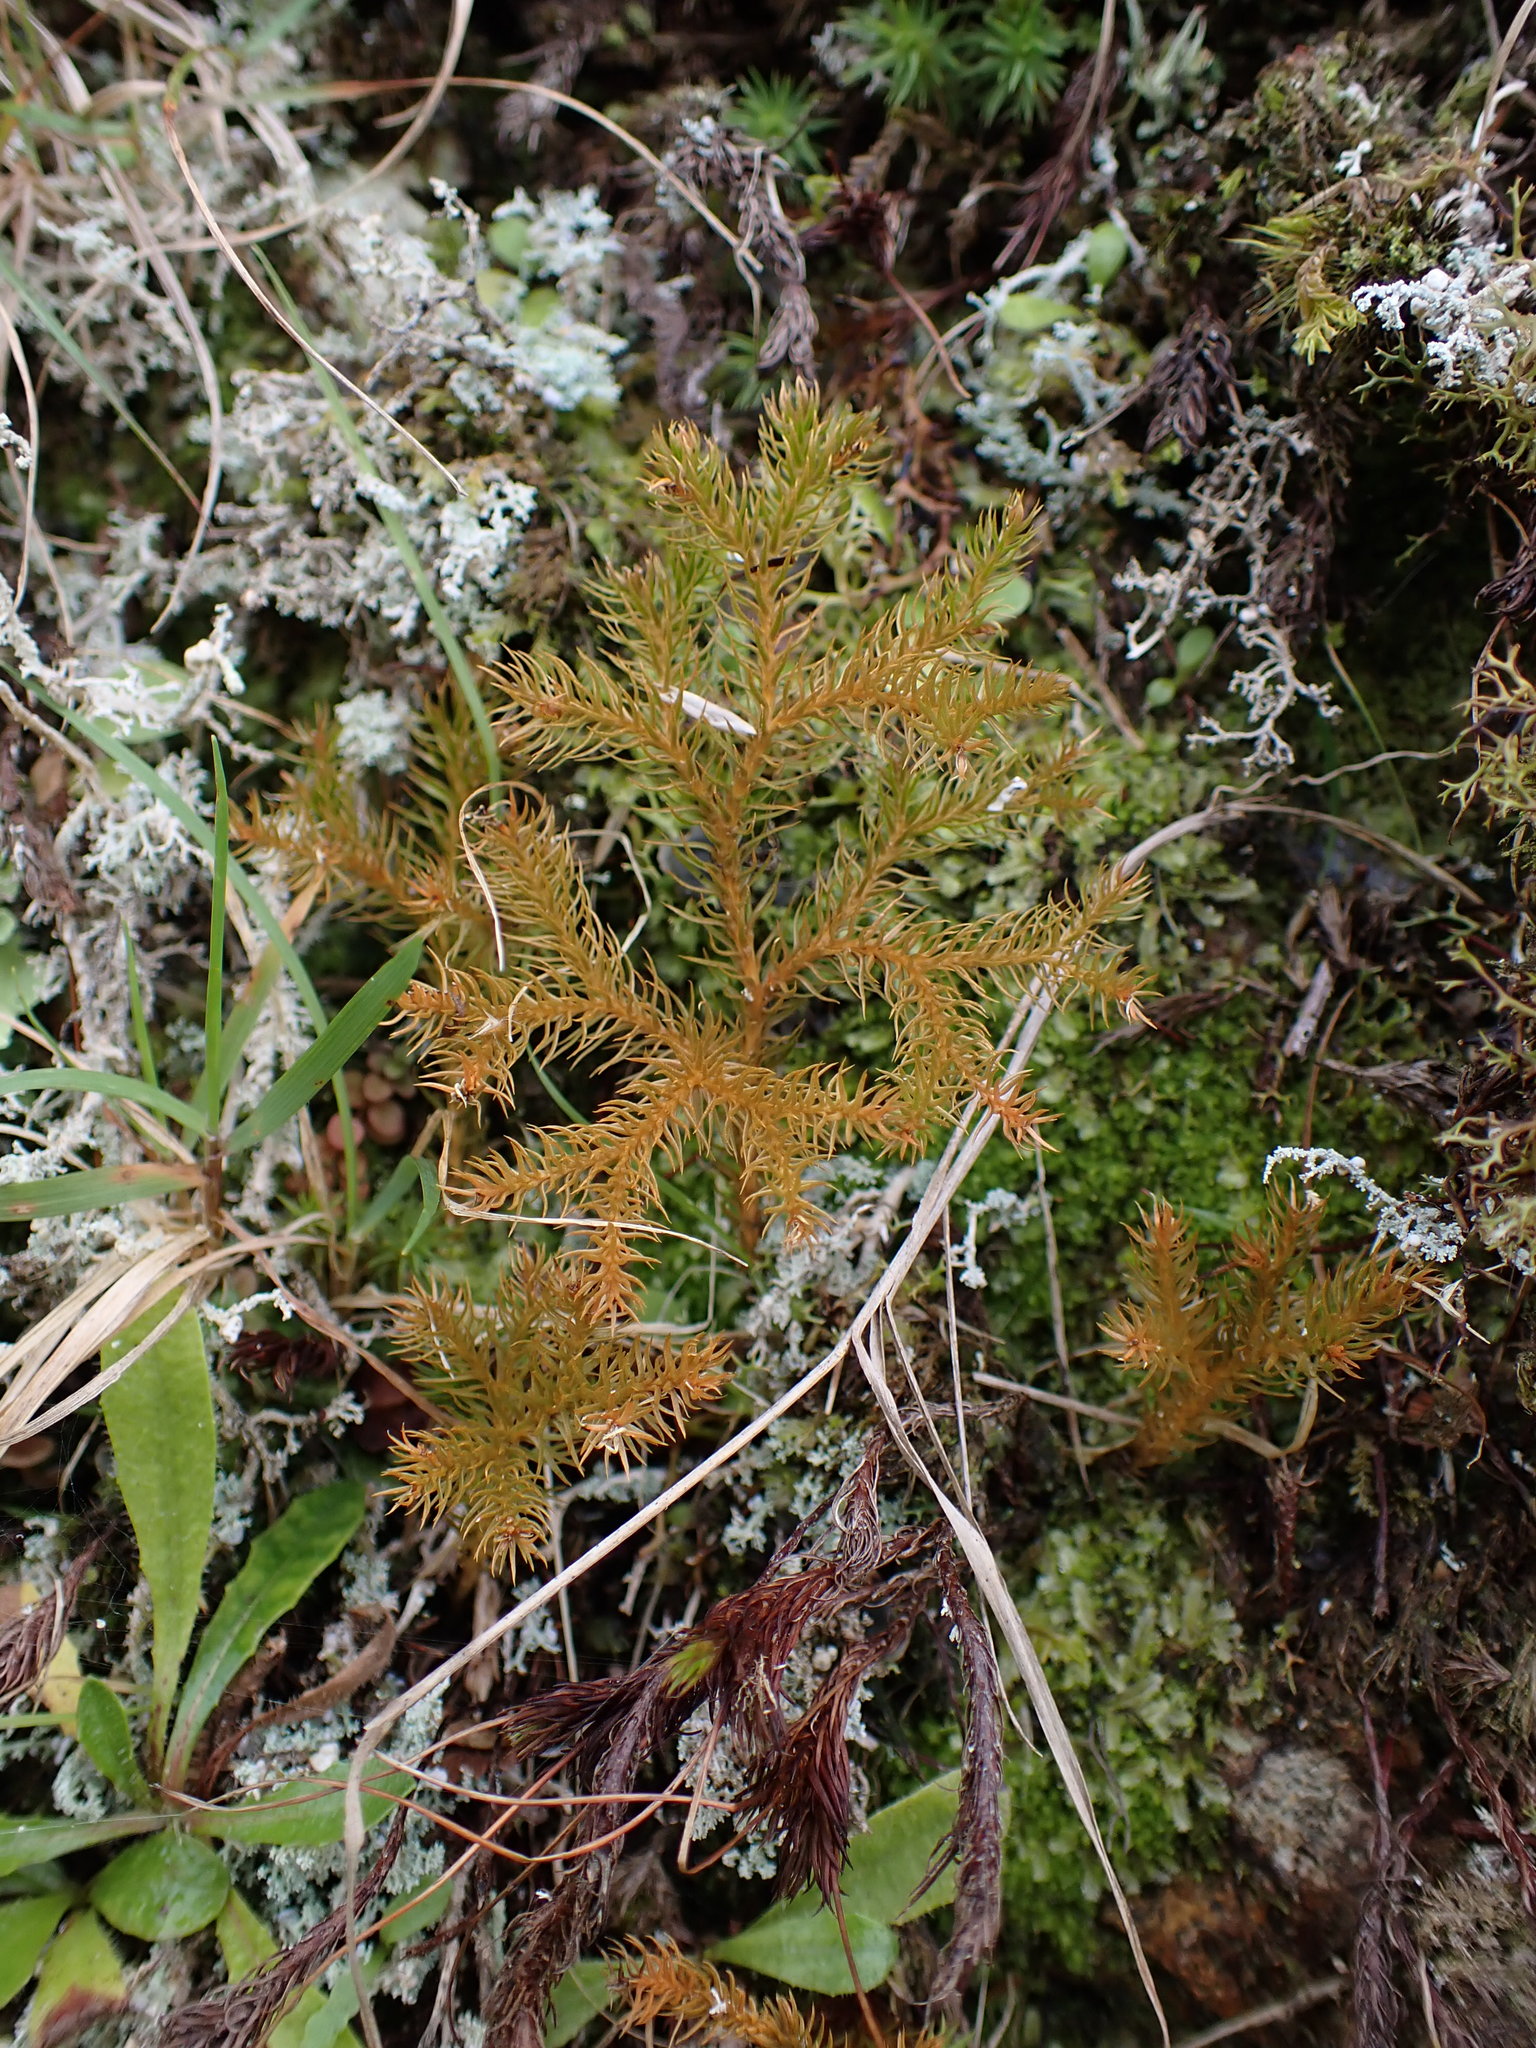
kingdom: Plantae
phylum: Tracheophyta
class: Lycopodiopsida
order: Lycopodiales
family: Lycopodiaceae
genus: Austrolycopodium
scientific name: Austrolycopodium fastigiatum
